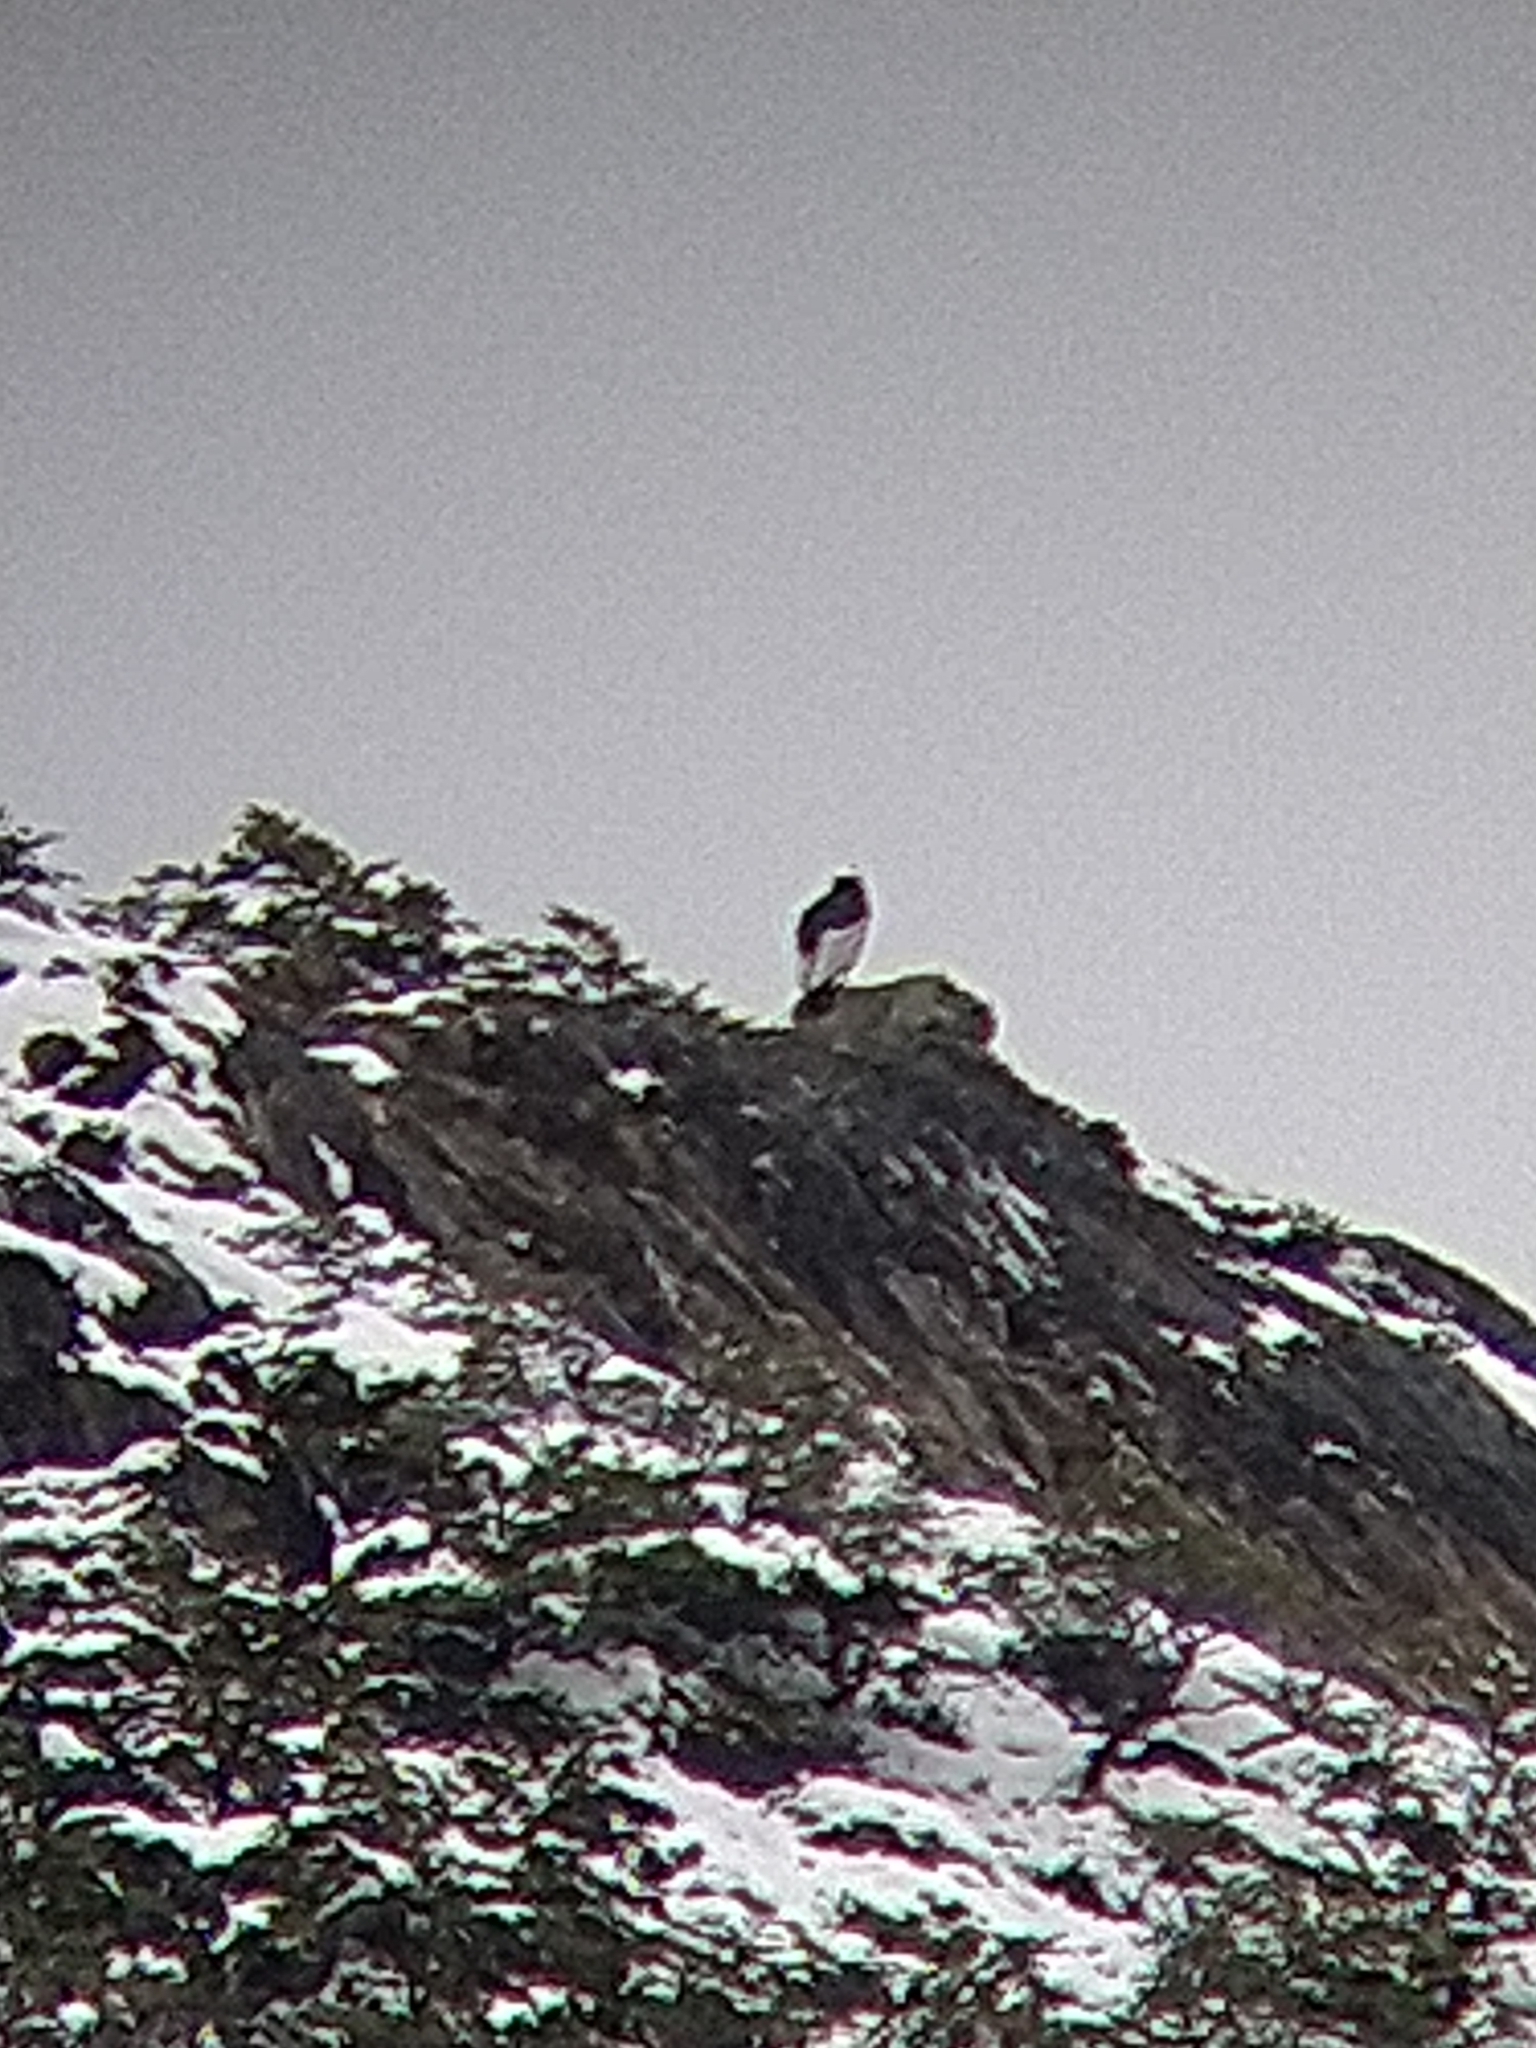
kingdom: Animalia
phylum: Chordata
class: Aves
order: Accipitriformes
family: Cathartidae
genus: Vultur
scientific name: Vultur gryphus
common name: Andean condor
